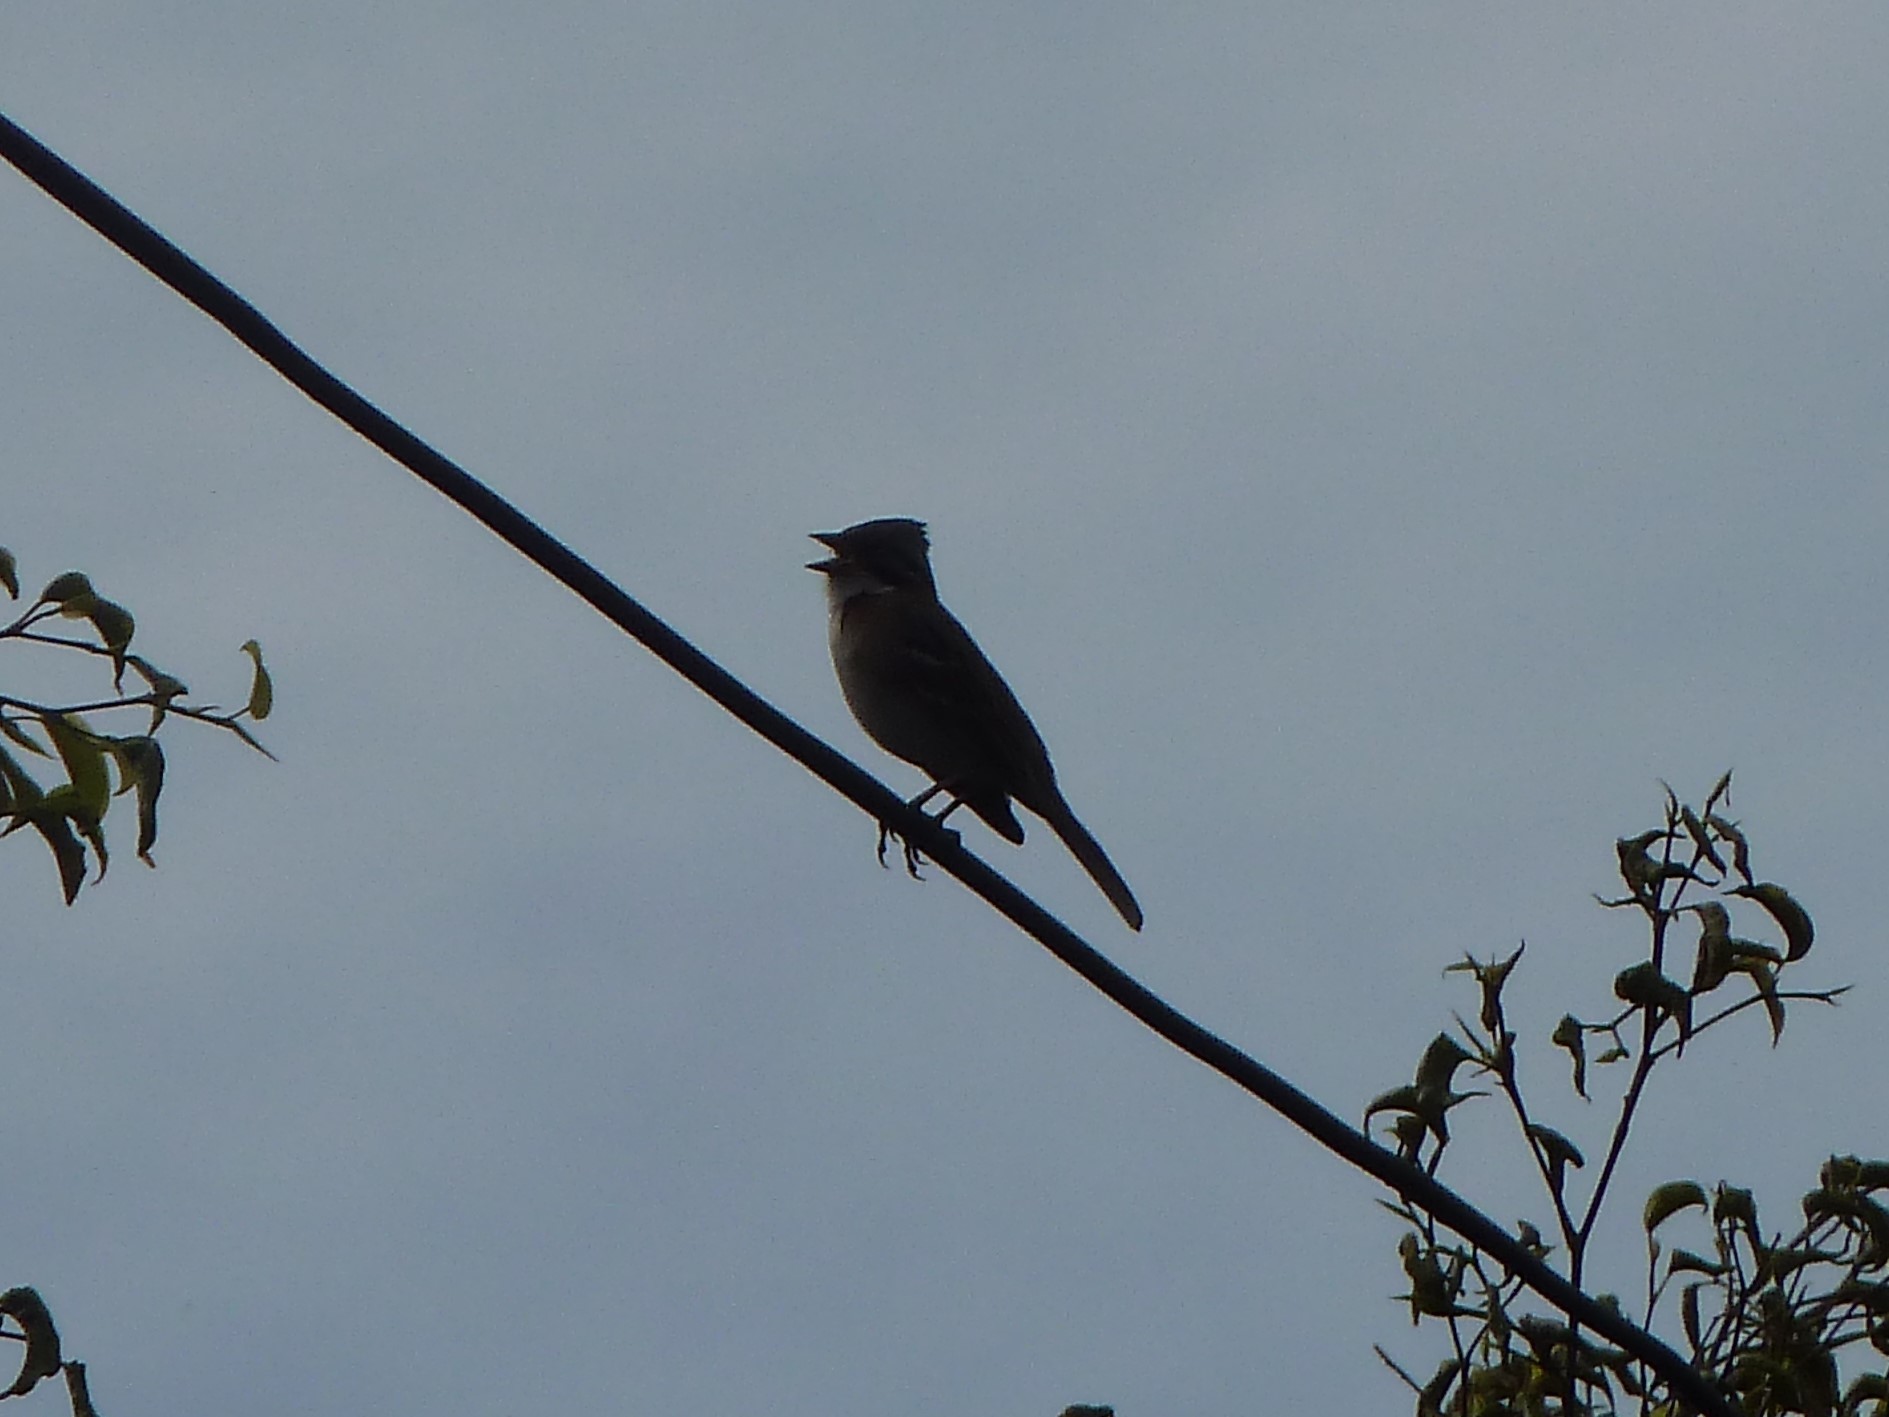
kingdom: Animalia
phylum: Chordata
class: Aves
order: Passeriformes
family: Passerellidae
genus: Zonotrichia
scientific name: Zonotrichia capensis
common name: Rufous-collared sparrow
